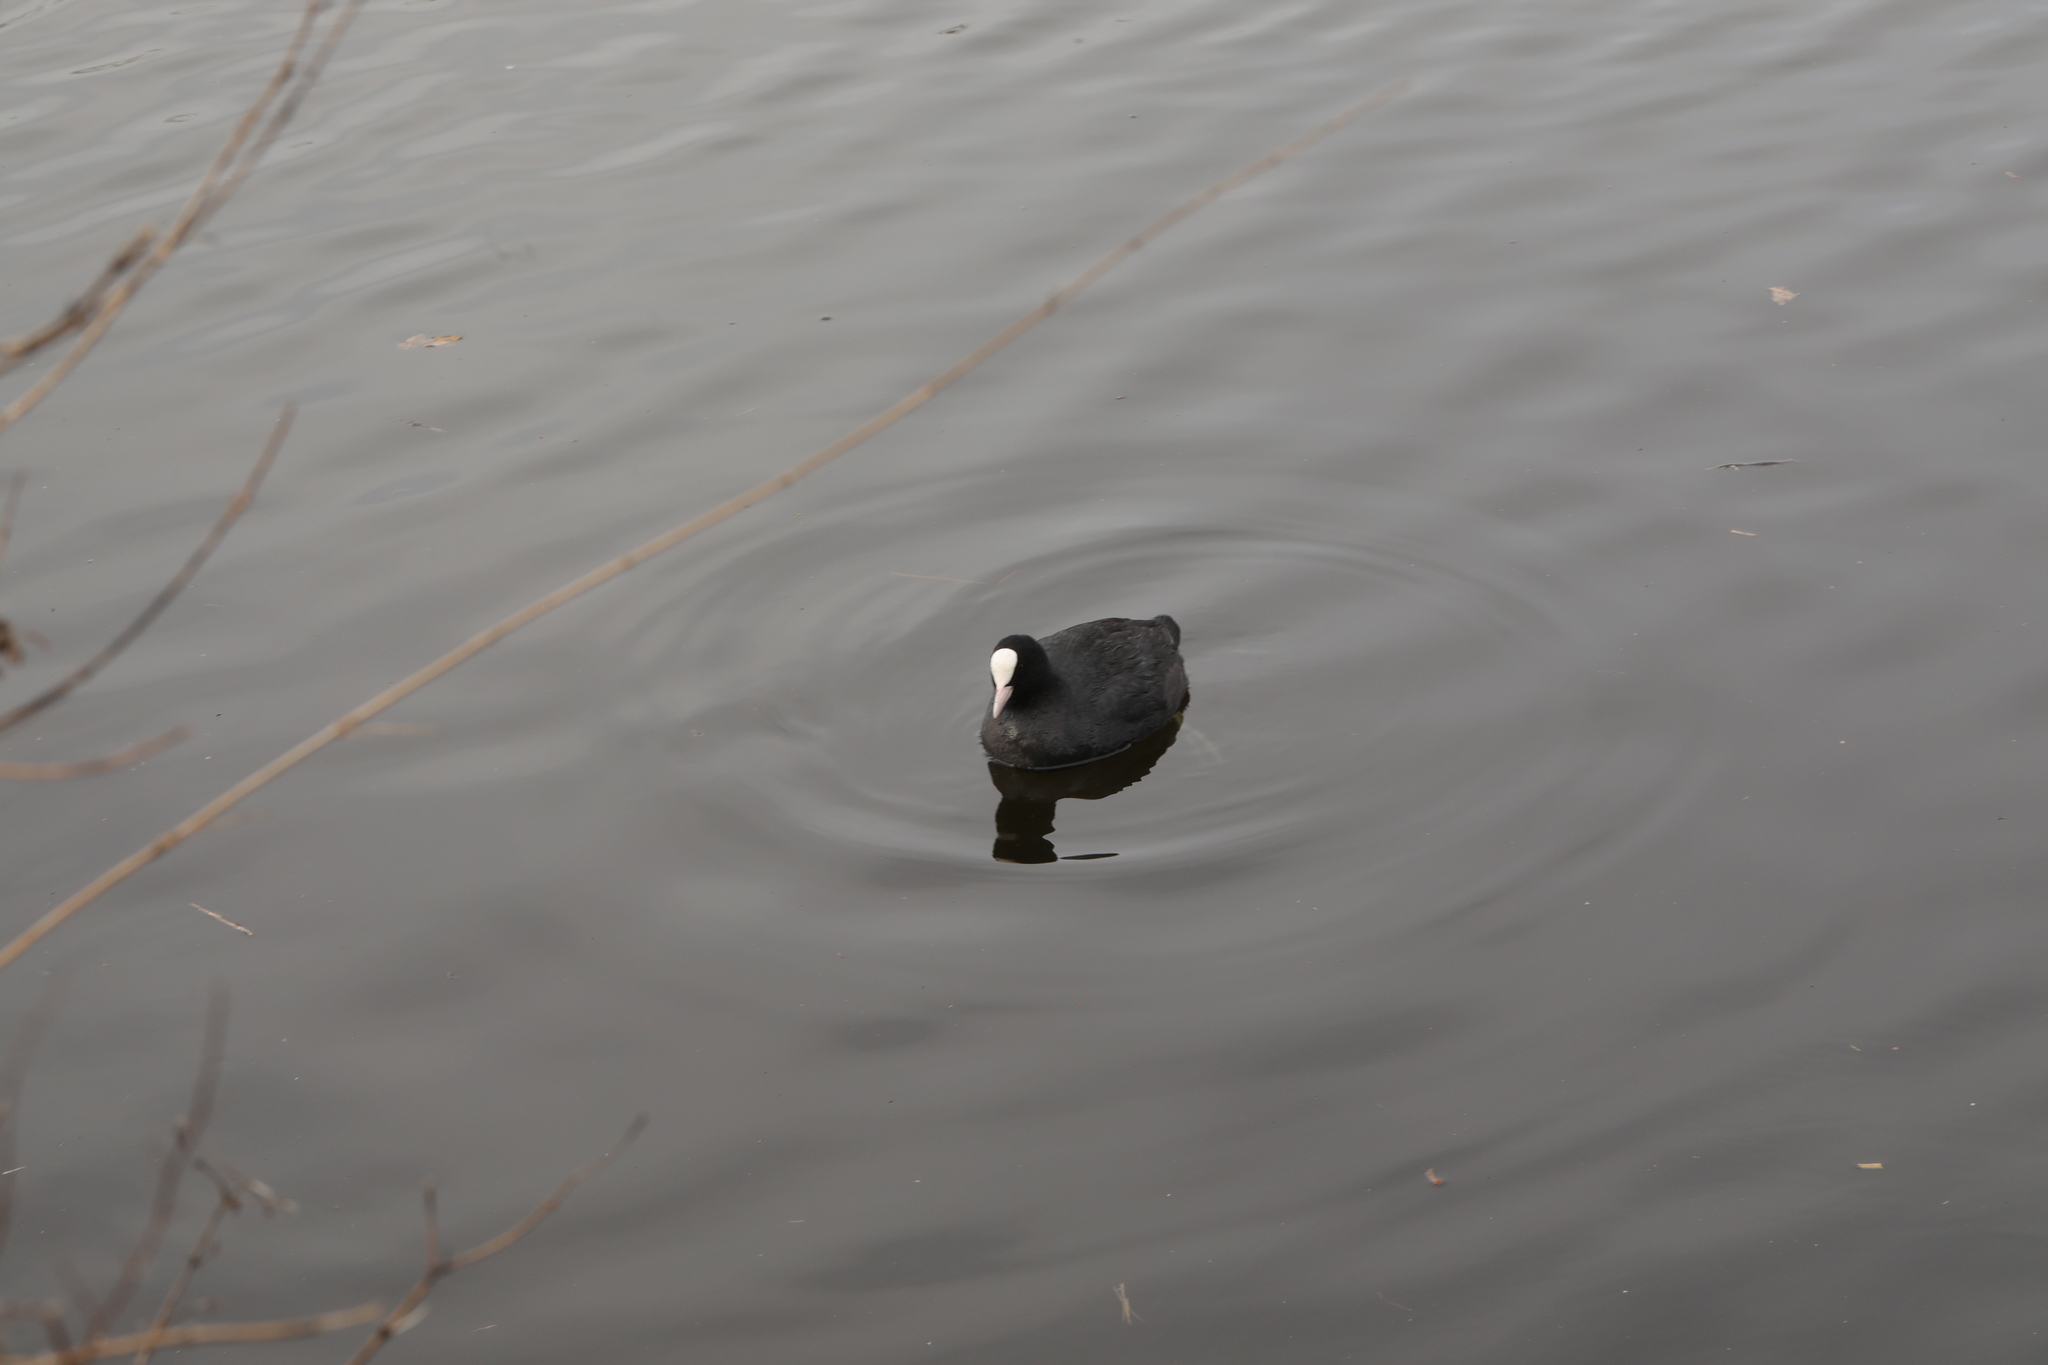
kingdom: Animalia
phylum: Chordata
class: Aves
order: Gruiformes
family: Rallidae
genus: Fulica
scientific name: Fulica atra
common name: Eurasian coot
